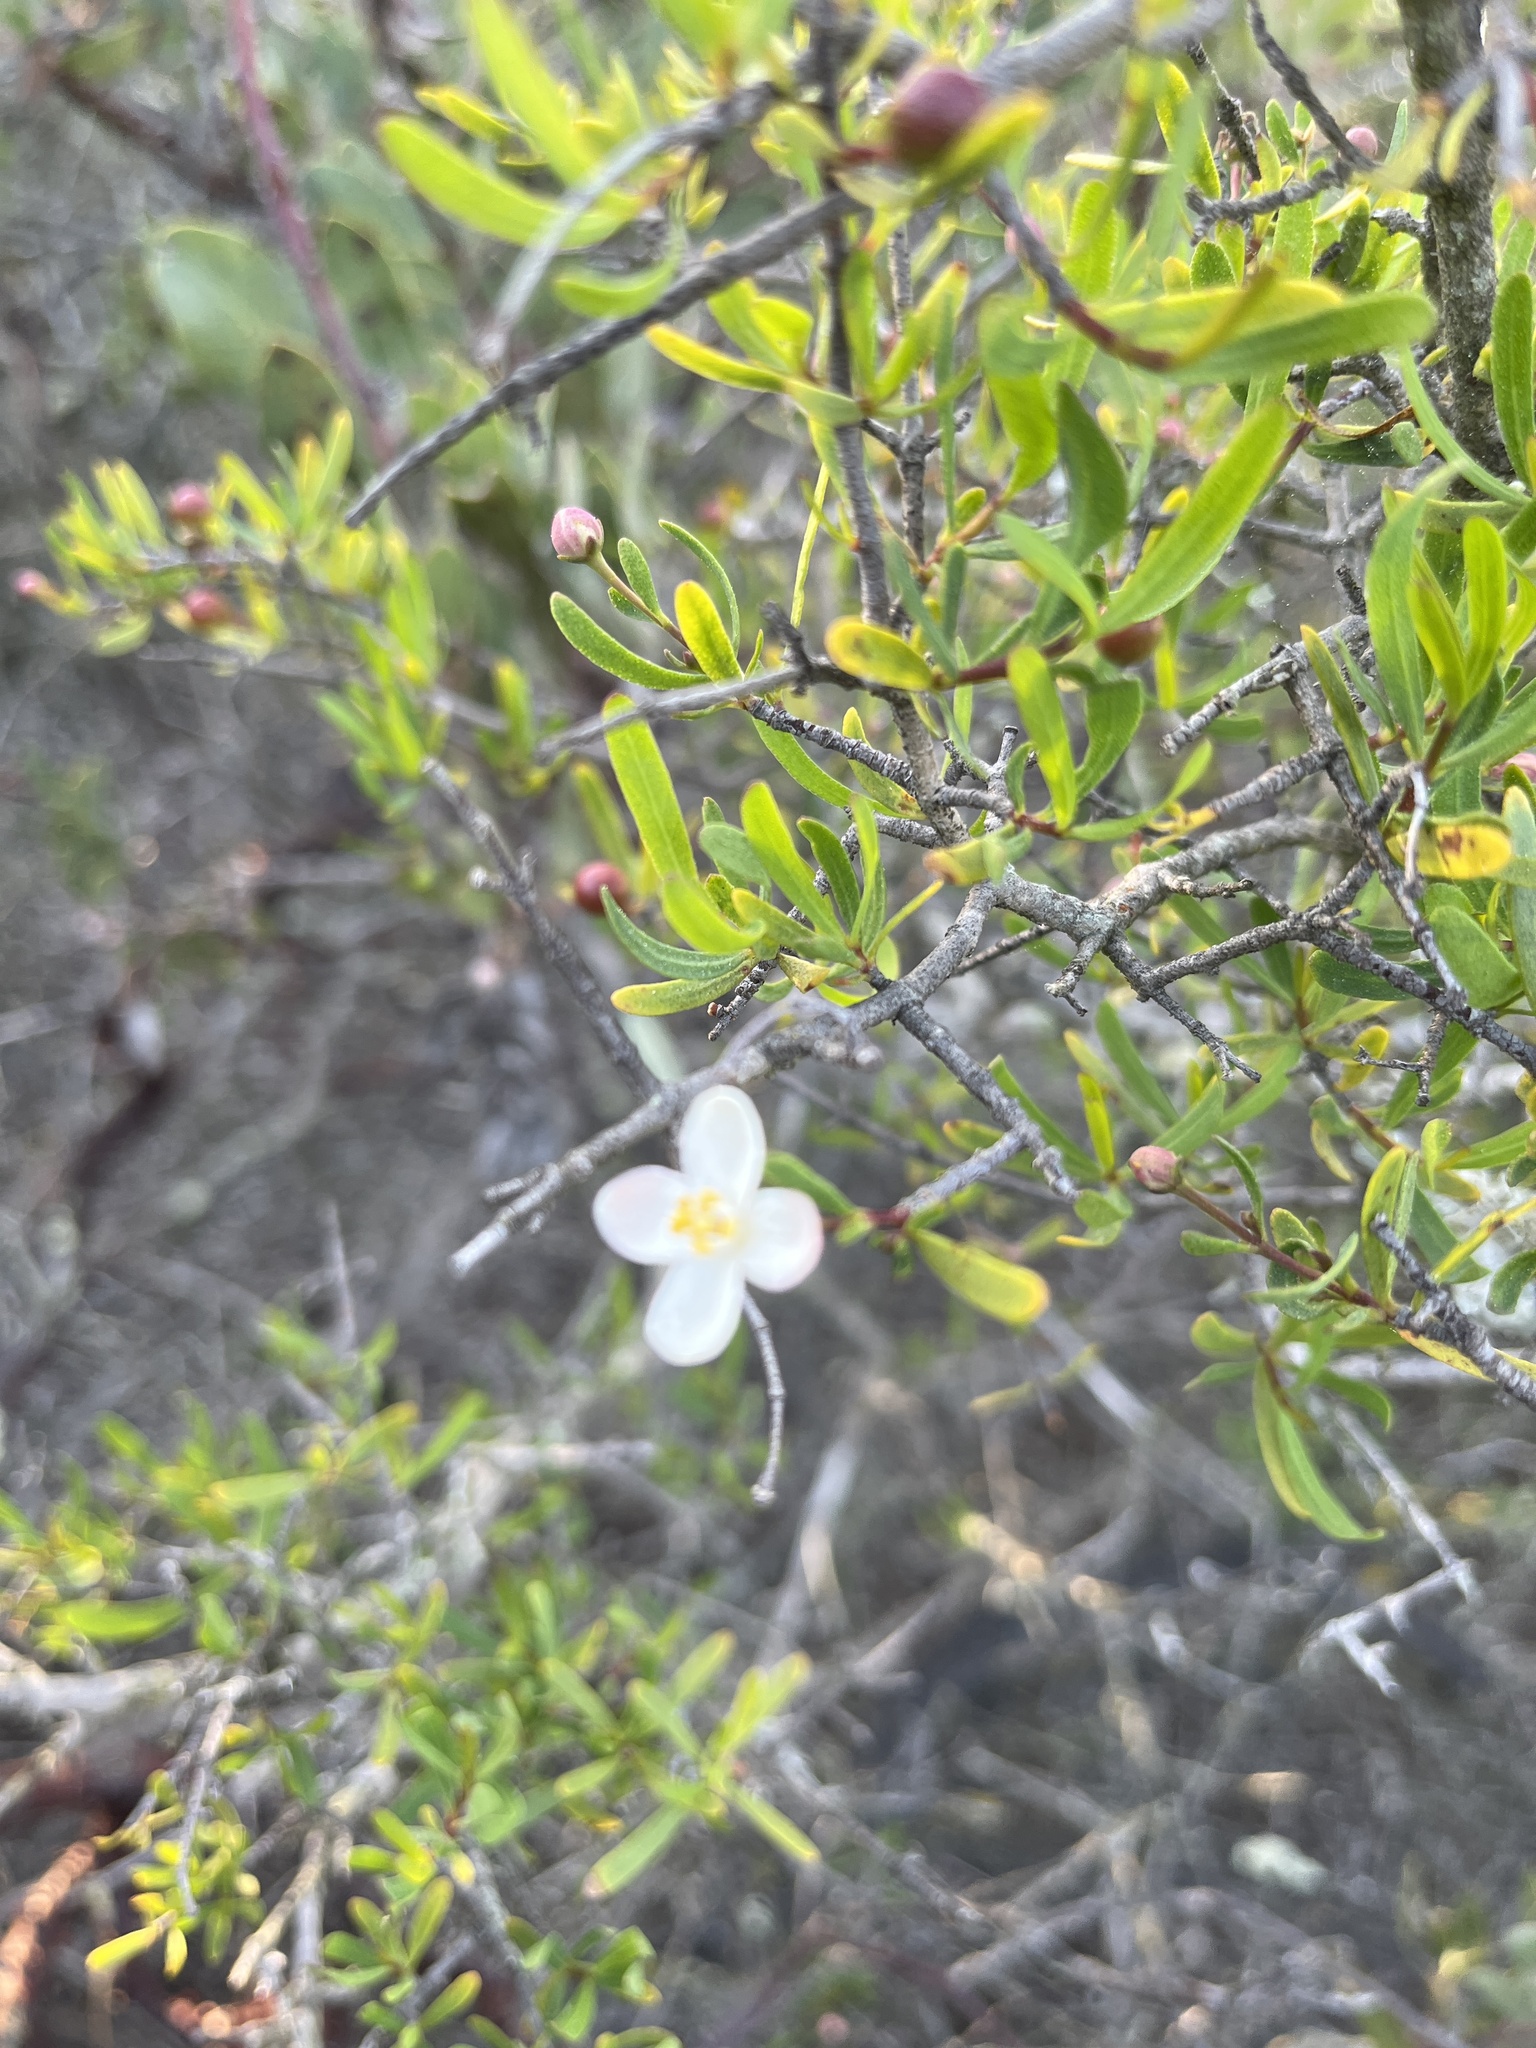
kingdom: Plantae
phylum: Tracheophyta
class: Magnoliopsida
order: Sapindales
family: Rutaceae
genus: Cneoridium
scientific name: Cneoridium dumosum
